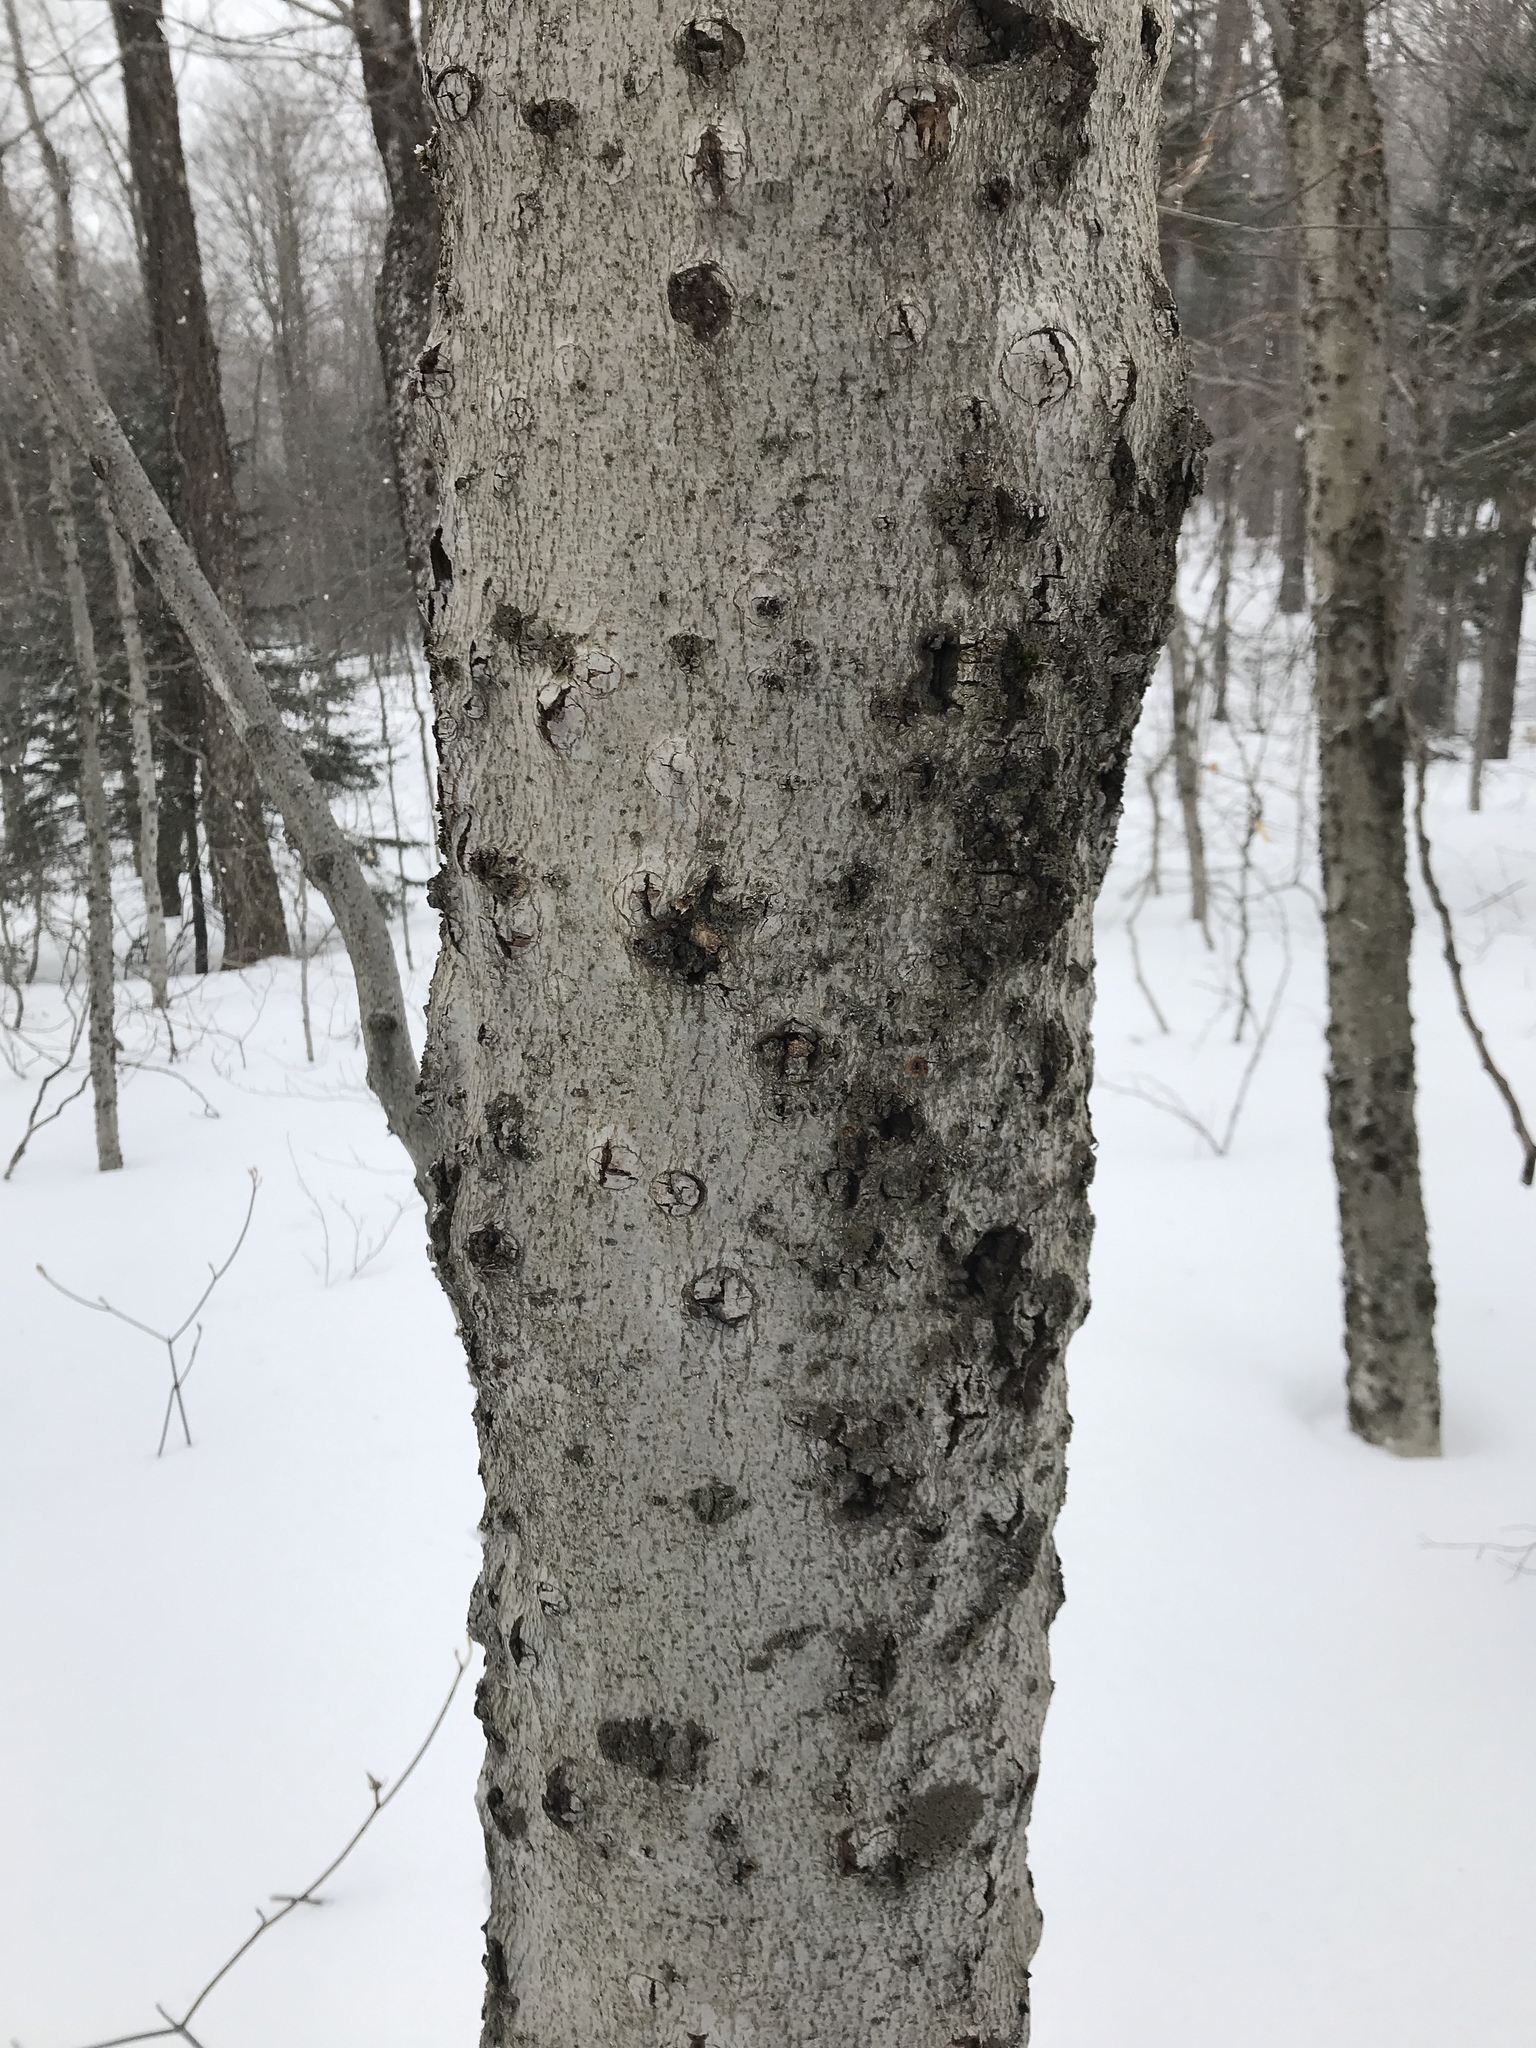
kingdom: Plantae
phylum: Tracheophyta
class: Magnoliopsida
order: Fagales
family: Fagaceae
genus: Fagus
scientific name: Fagus grandifolia
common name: American beech
